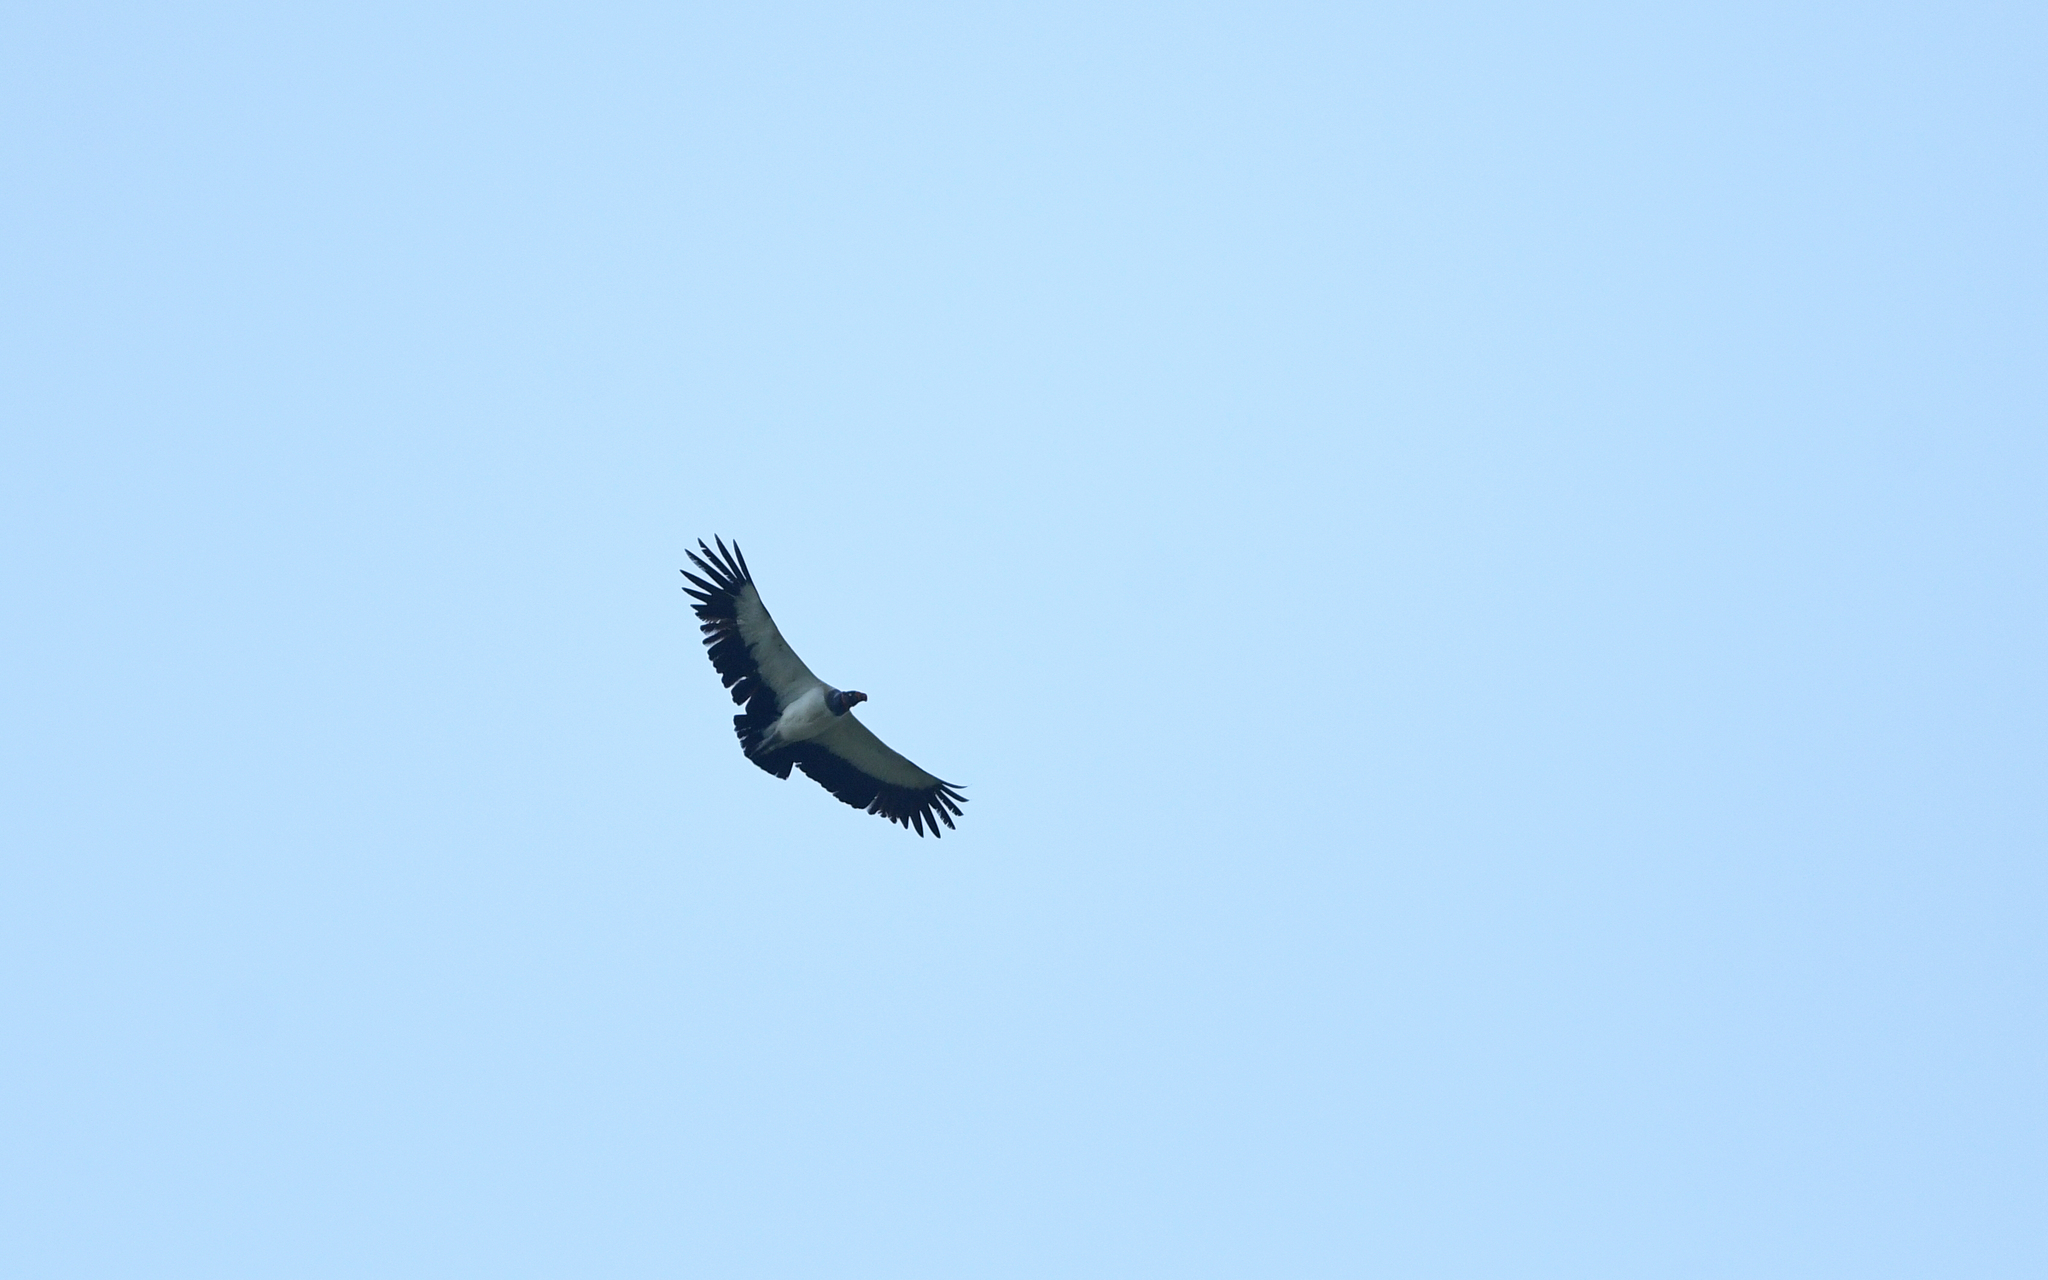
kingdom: Animalia
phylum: Chordata
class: Aves
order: Accipitriformes
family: Cathartidae
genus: Sarcoramphus
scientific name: Sarcoramphus papa
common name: King vulture
